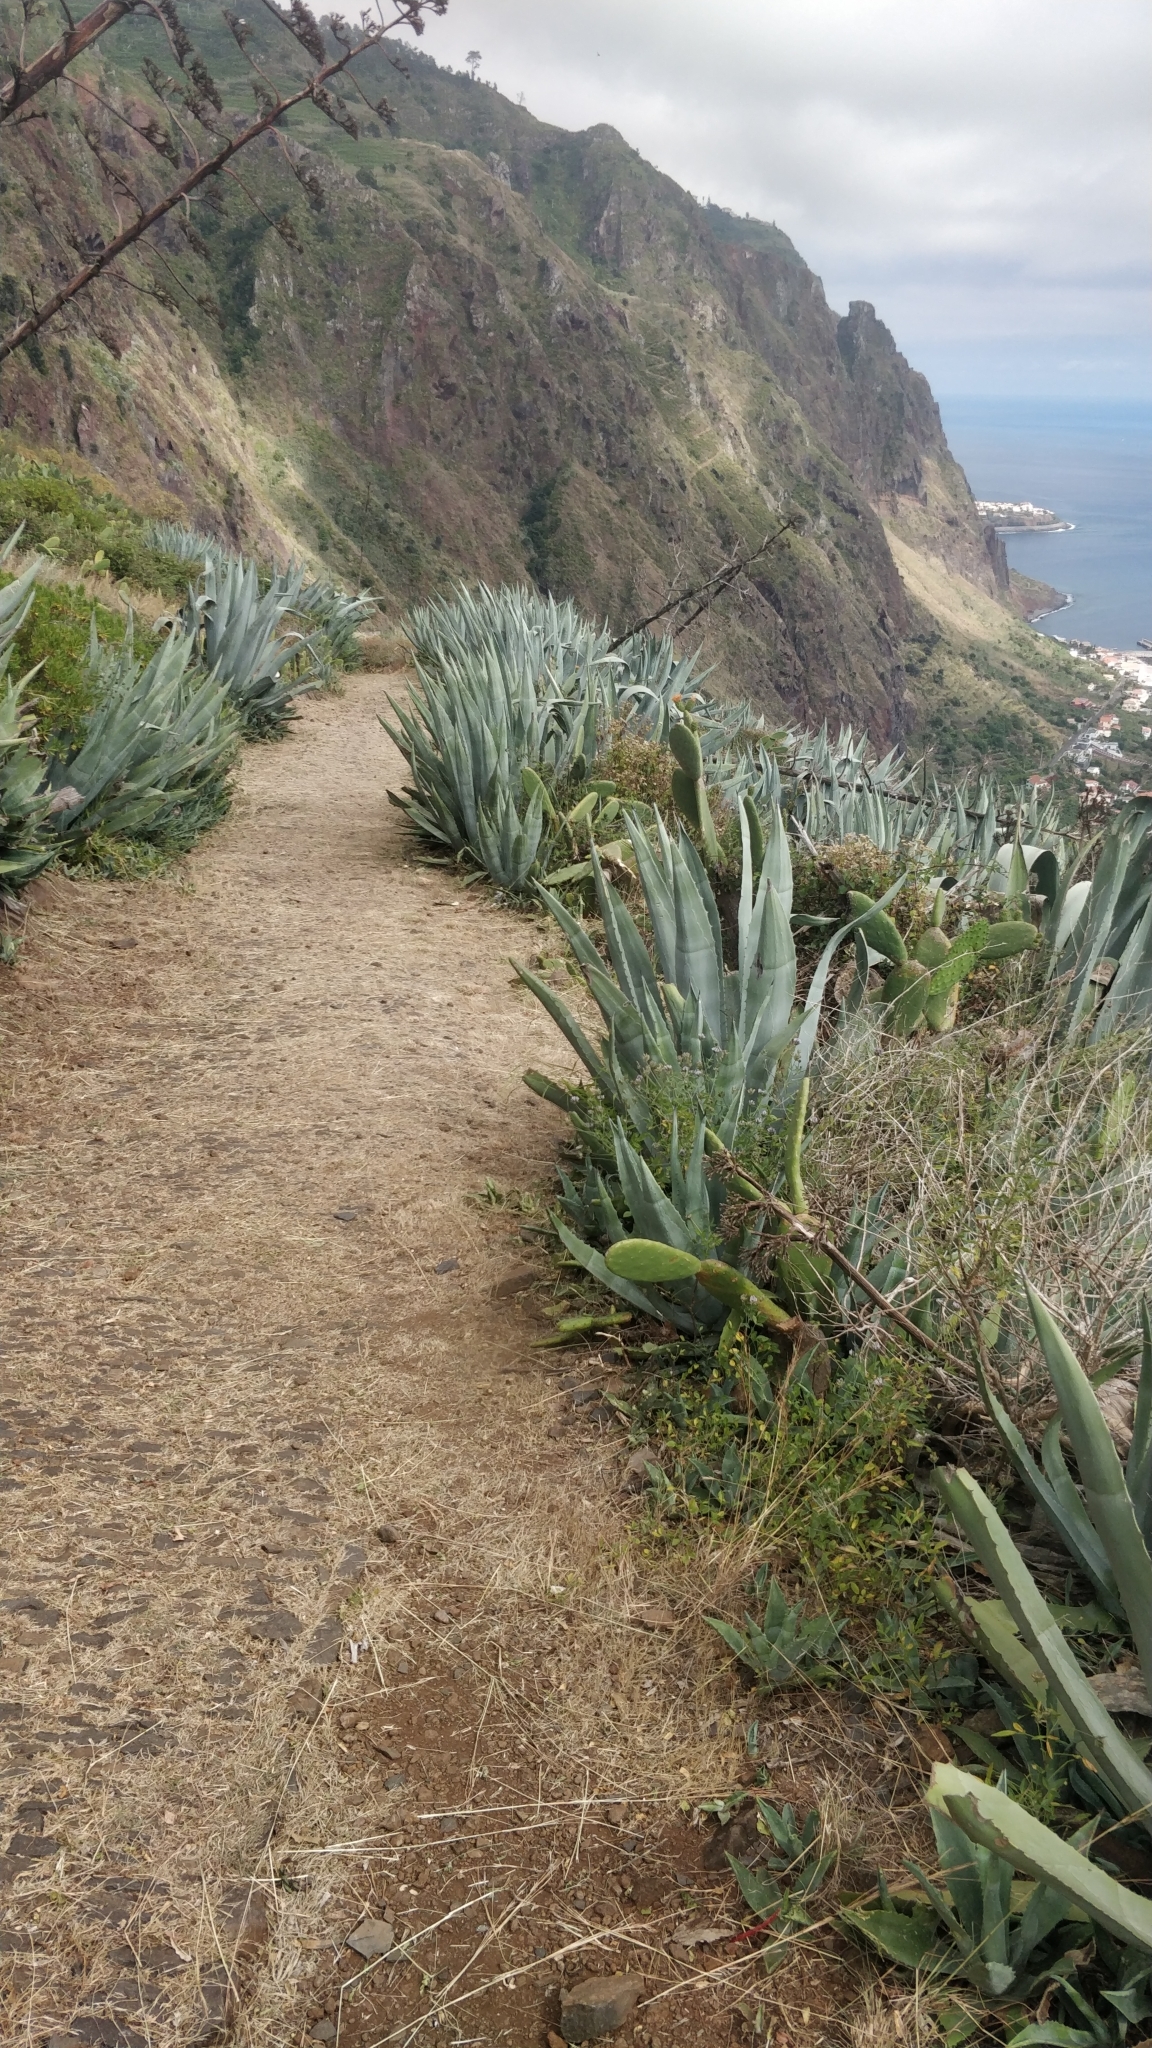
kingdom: Plantae
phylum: Tracheophyta
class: Liliopsida
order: Asparagales
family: Asparagaceae
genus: Agave
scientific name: Agave americana
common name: Centuryplant
